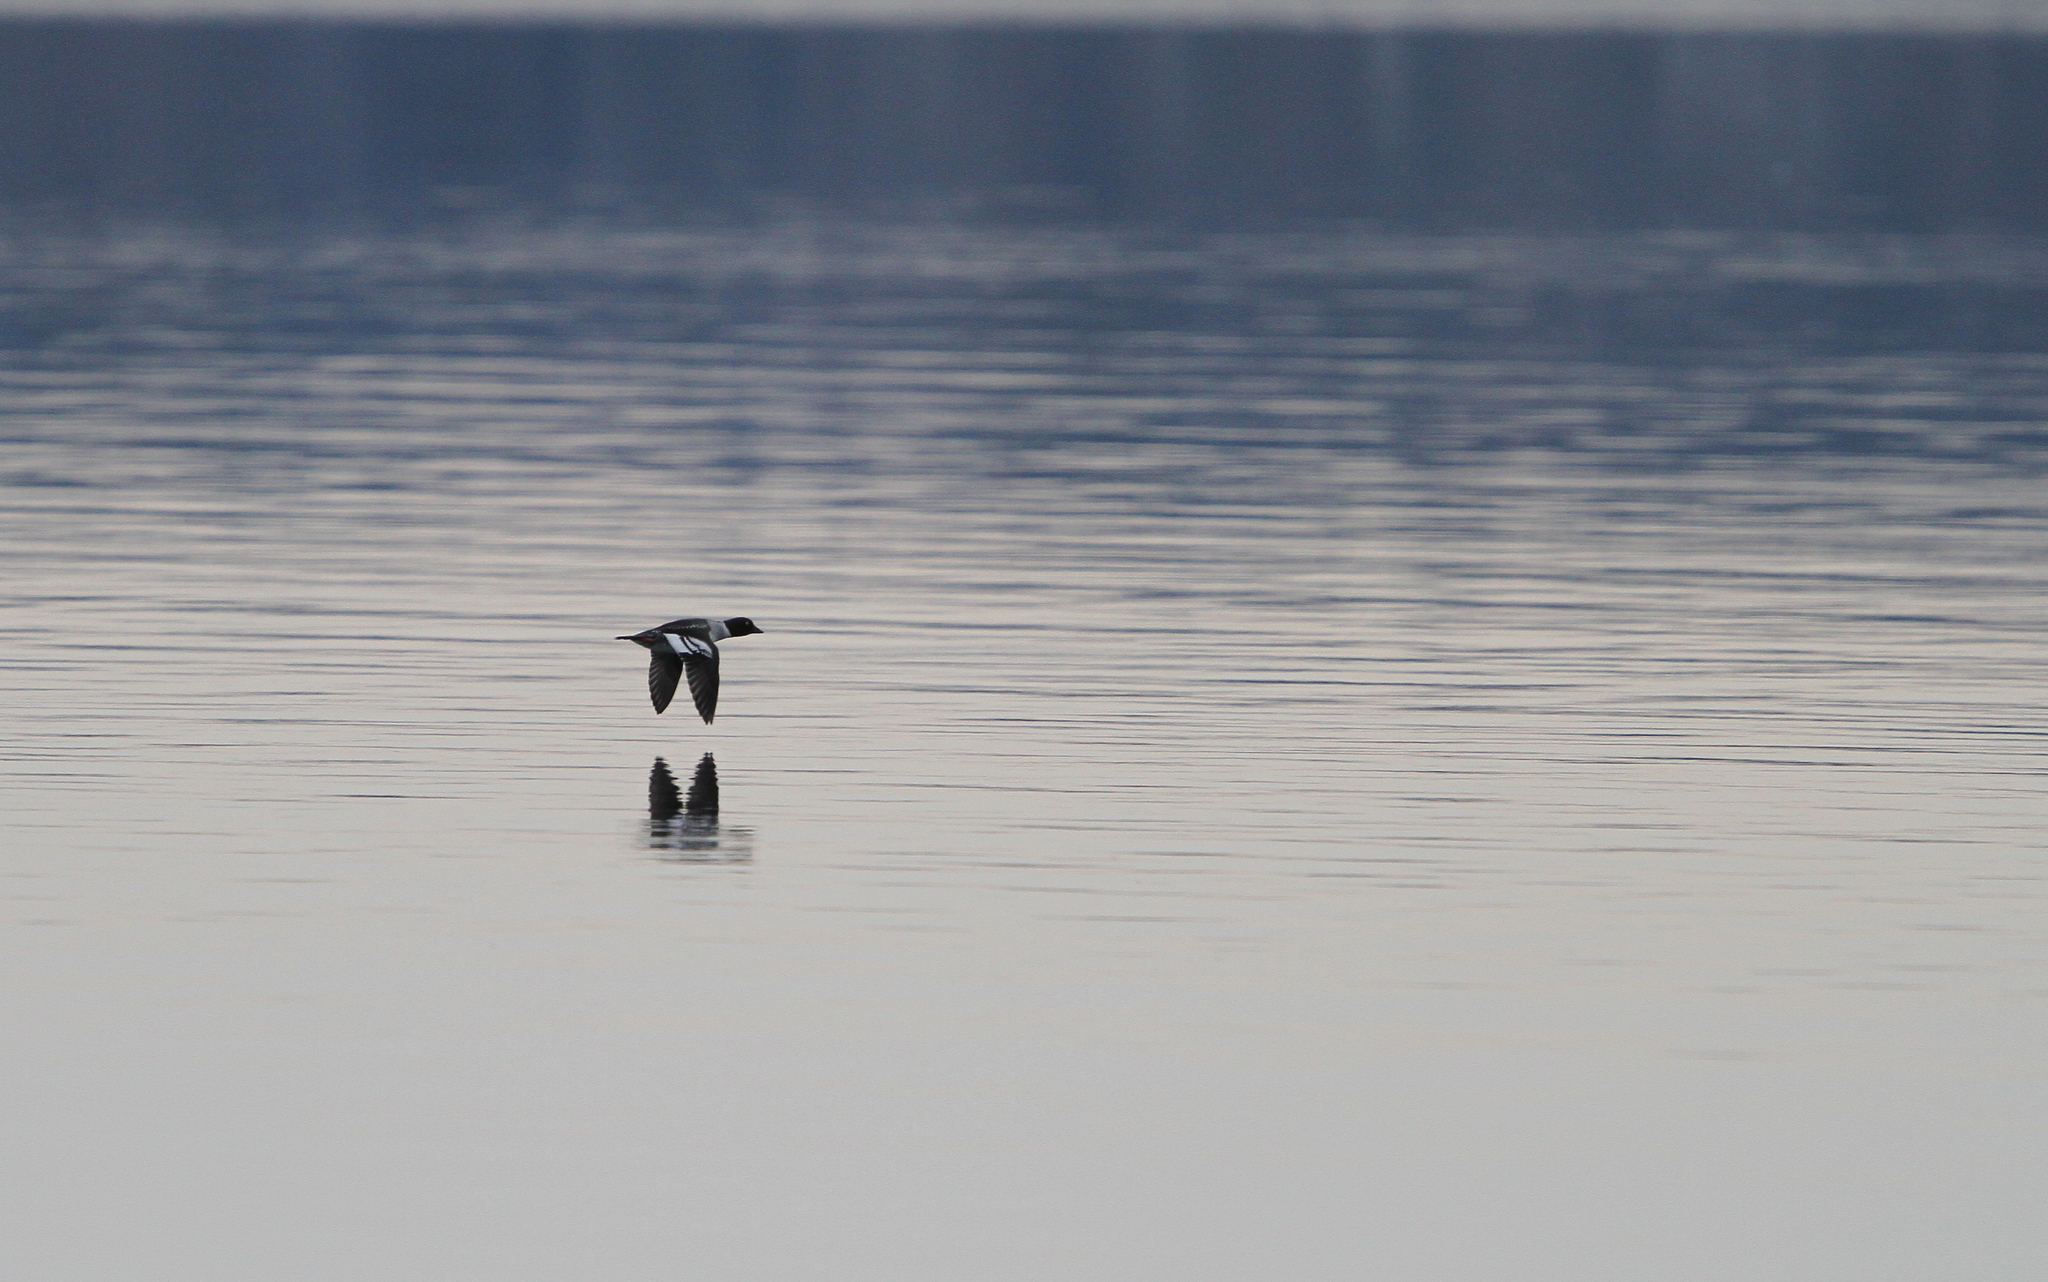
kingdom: Animalia
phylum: Chordata
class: Aves
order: Anseriformes
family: Anatidae
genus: Bucephala
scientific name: Bucephala clangula
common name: Common goldeneye
